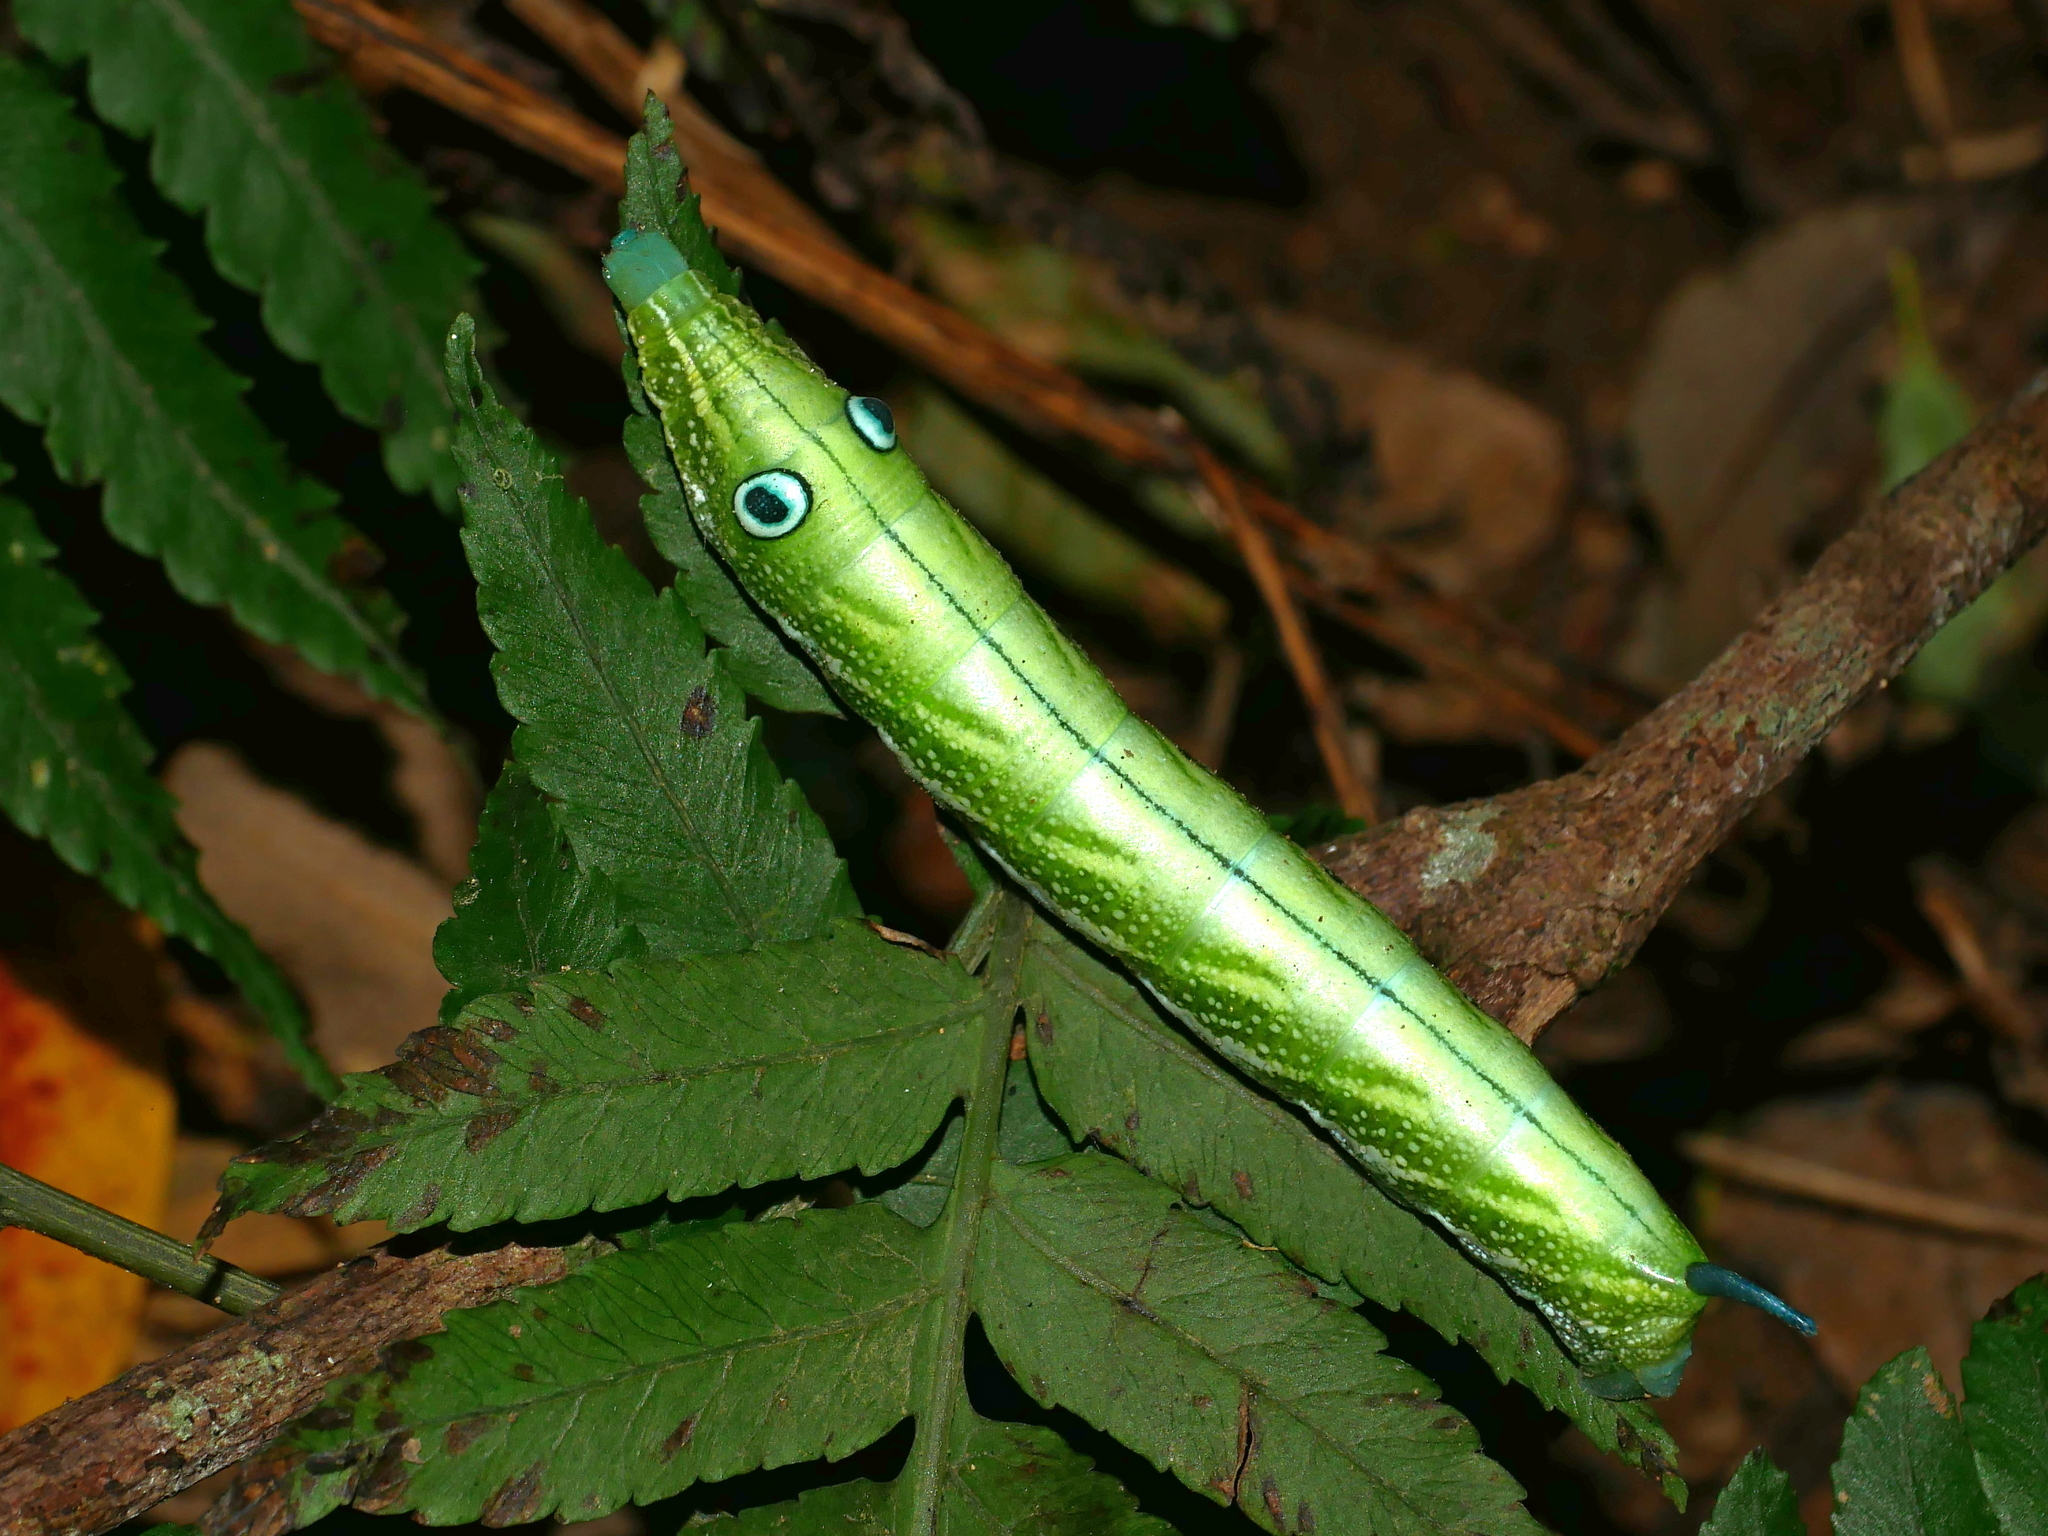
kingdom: Animalia
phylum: Arthropoda
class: Insecta
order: Lepidoptera
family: Sphingidae
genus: Rhagastis
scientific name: Rhagastis binoculata
